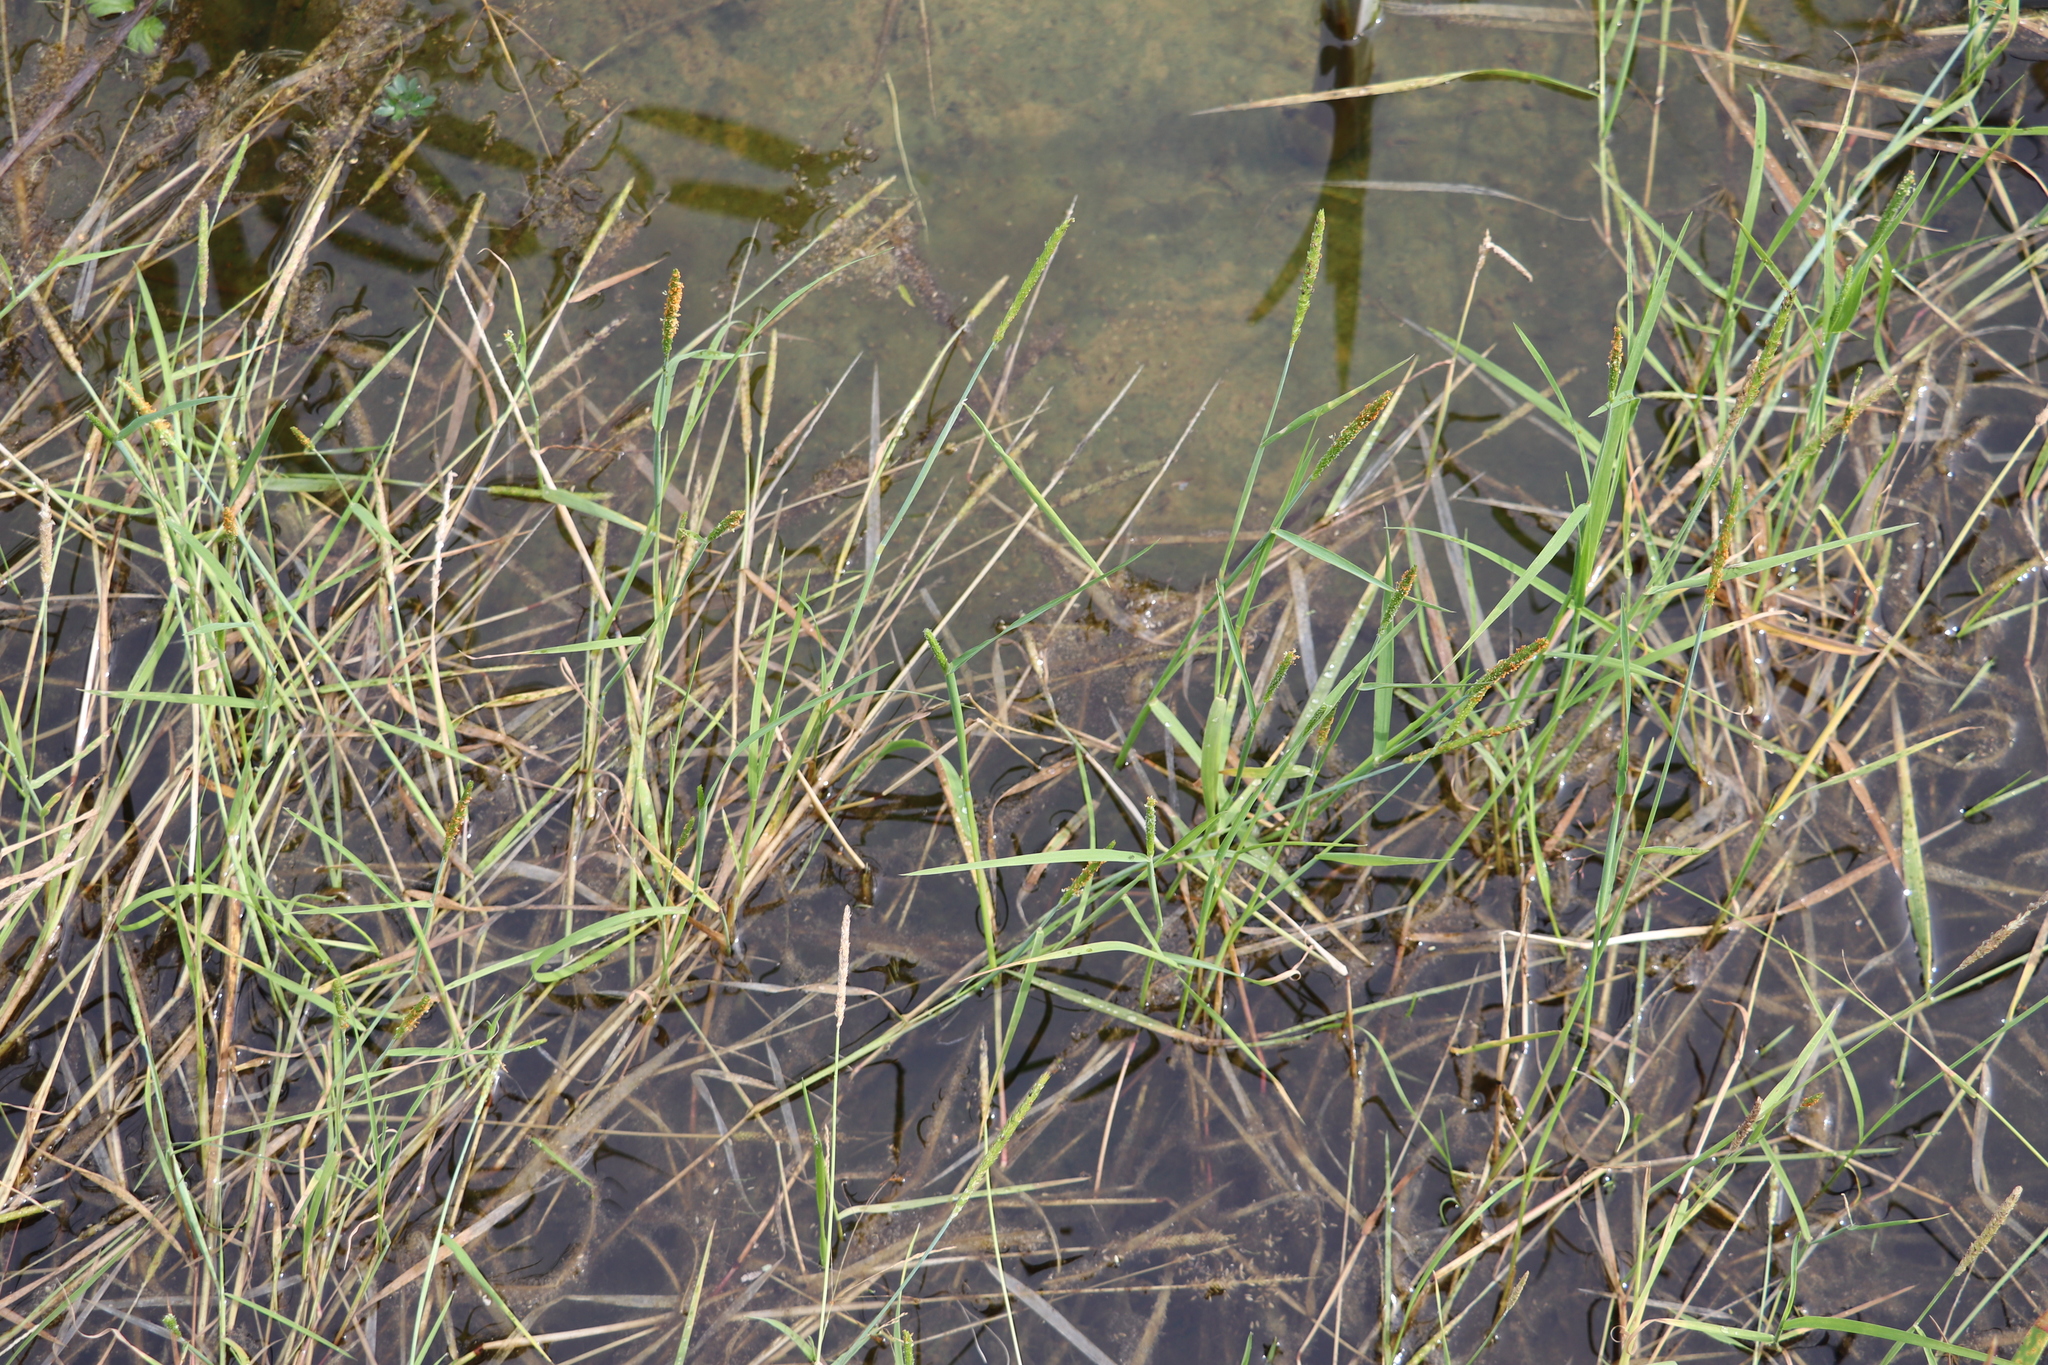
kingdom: Plantae
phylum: Tracheophyta
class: Liliopsida
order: Poales
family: Poaceae
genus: Alopecurus
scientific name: Alopecurus aequalis
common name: Orange foxtail
